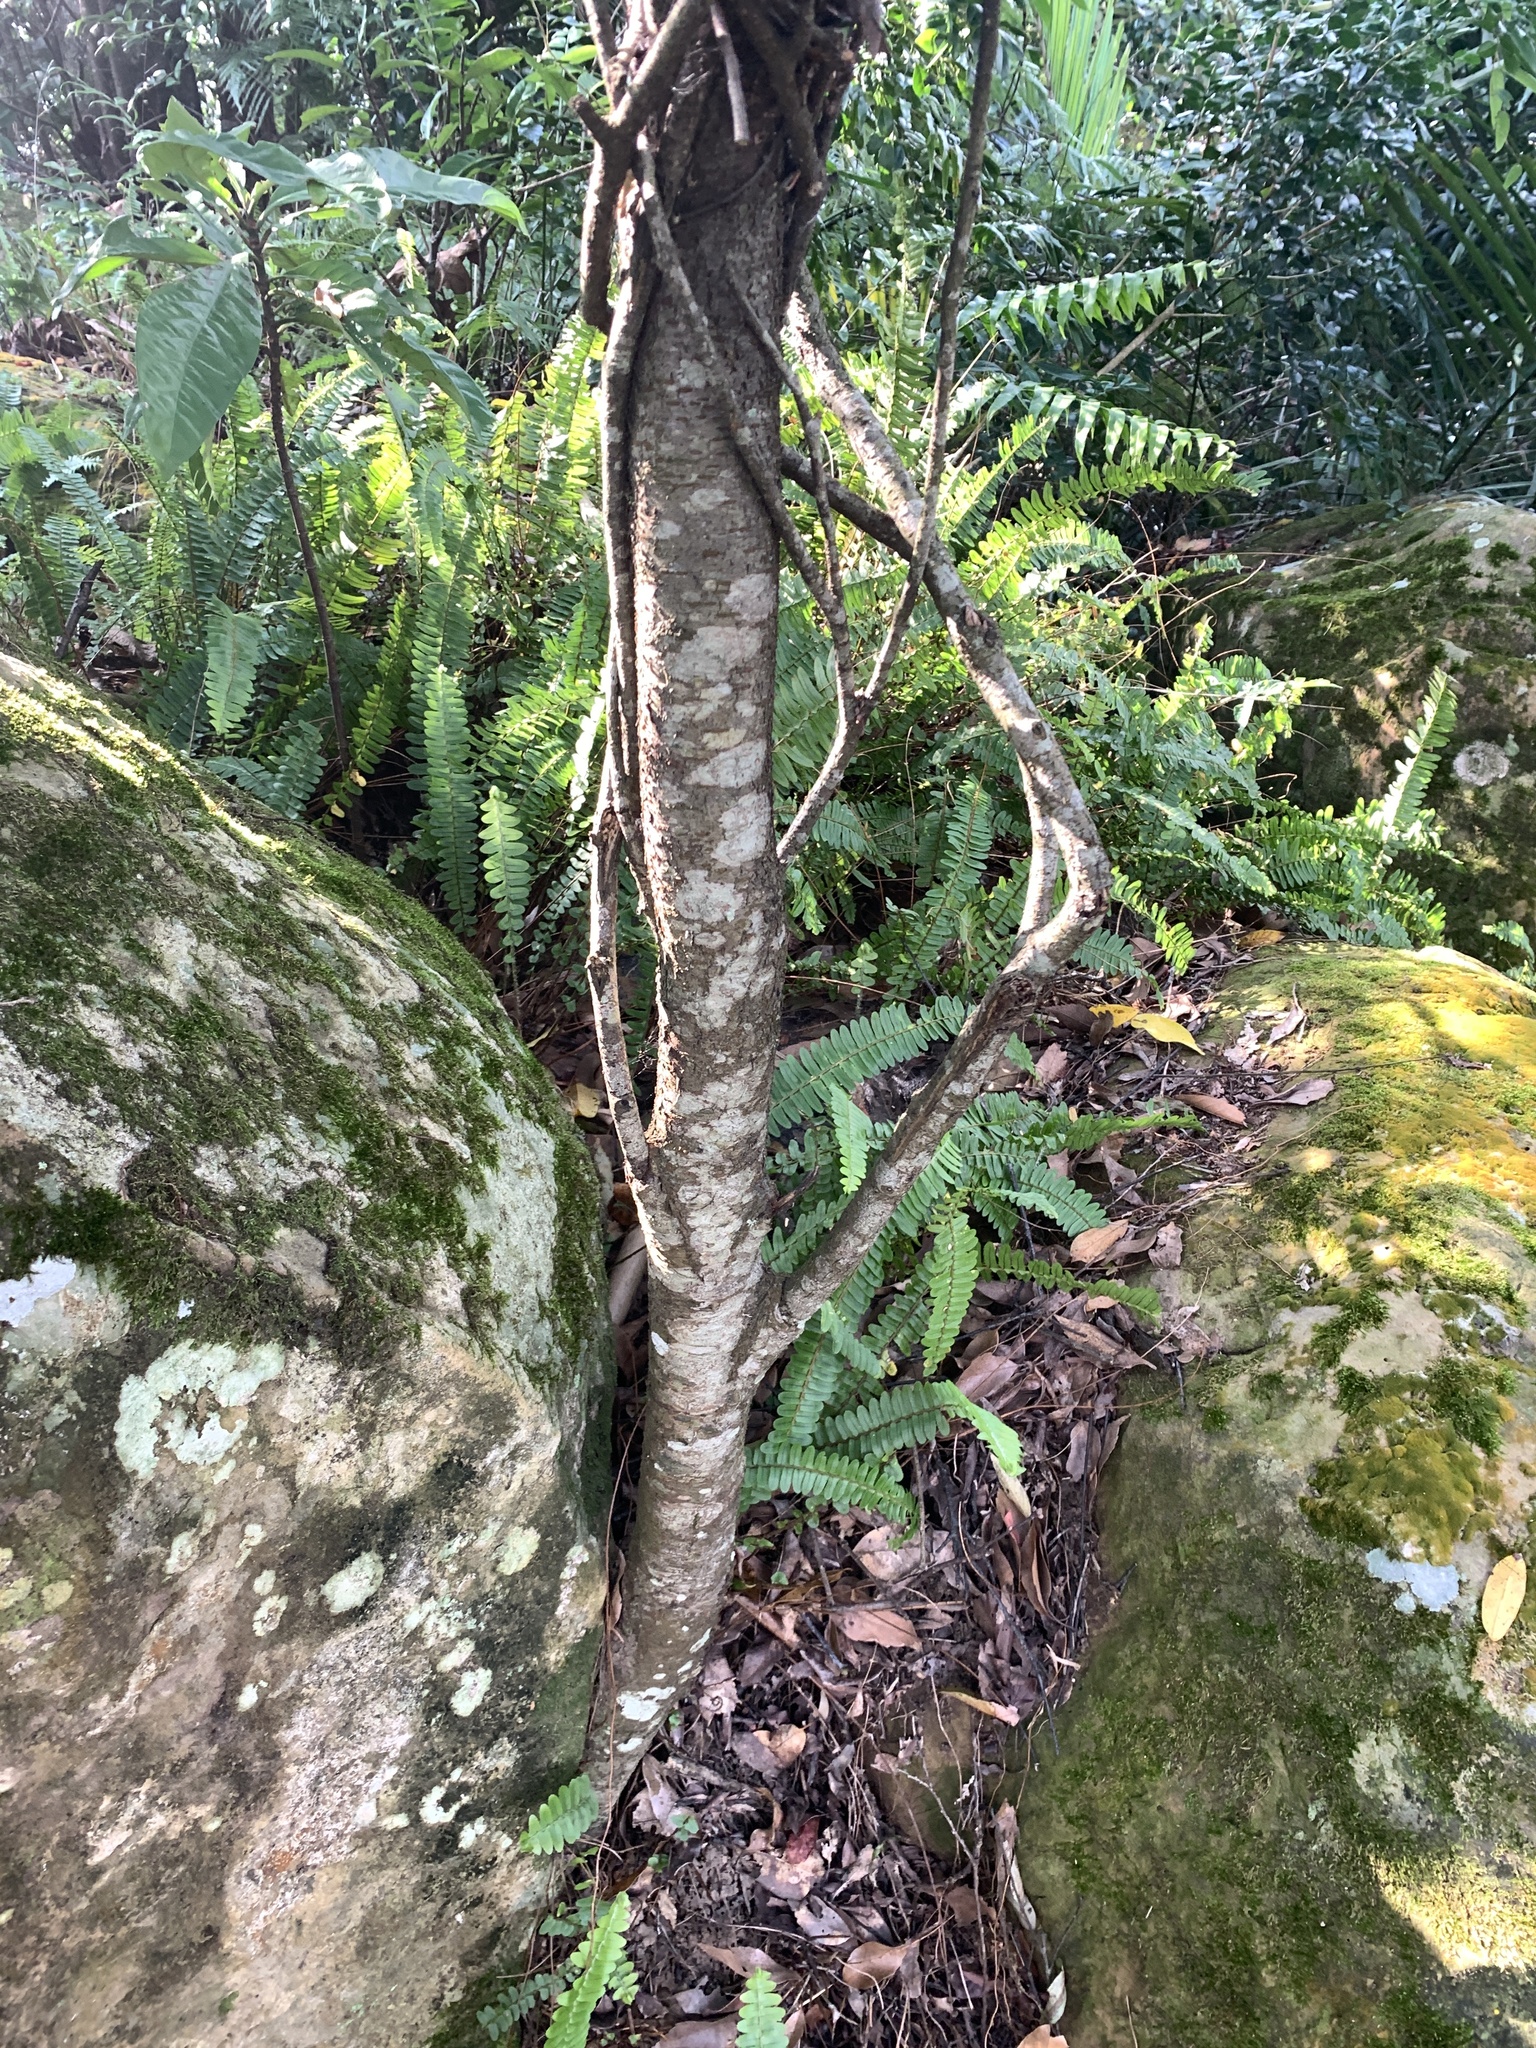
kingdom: Plantae
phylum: Tracheophyta
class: Magnoliopsida
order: Rosales
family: Rosaceae
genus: Prunus
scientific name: Prunus spinulosa
